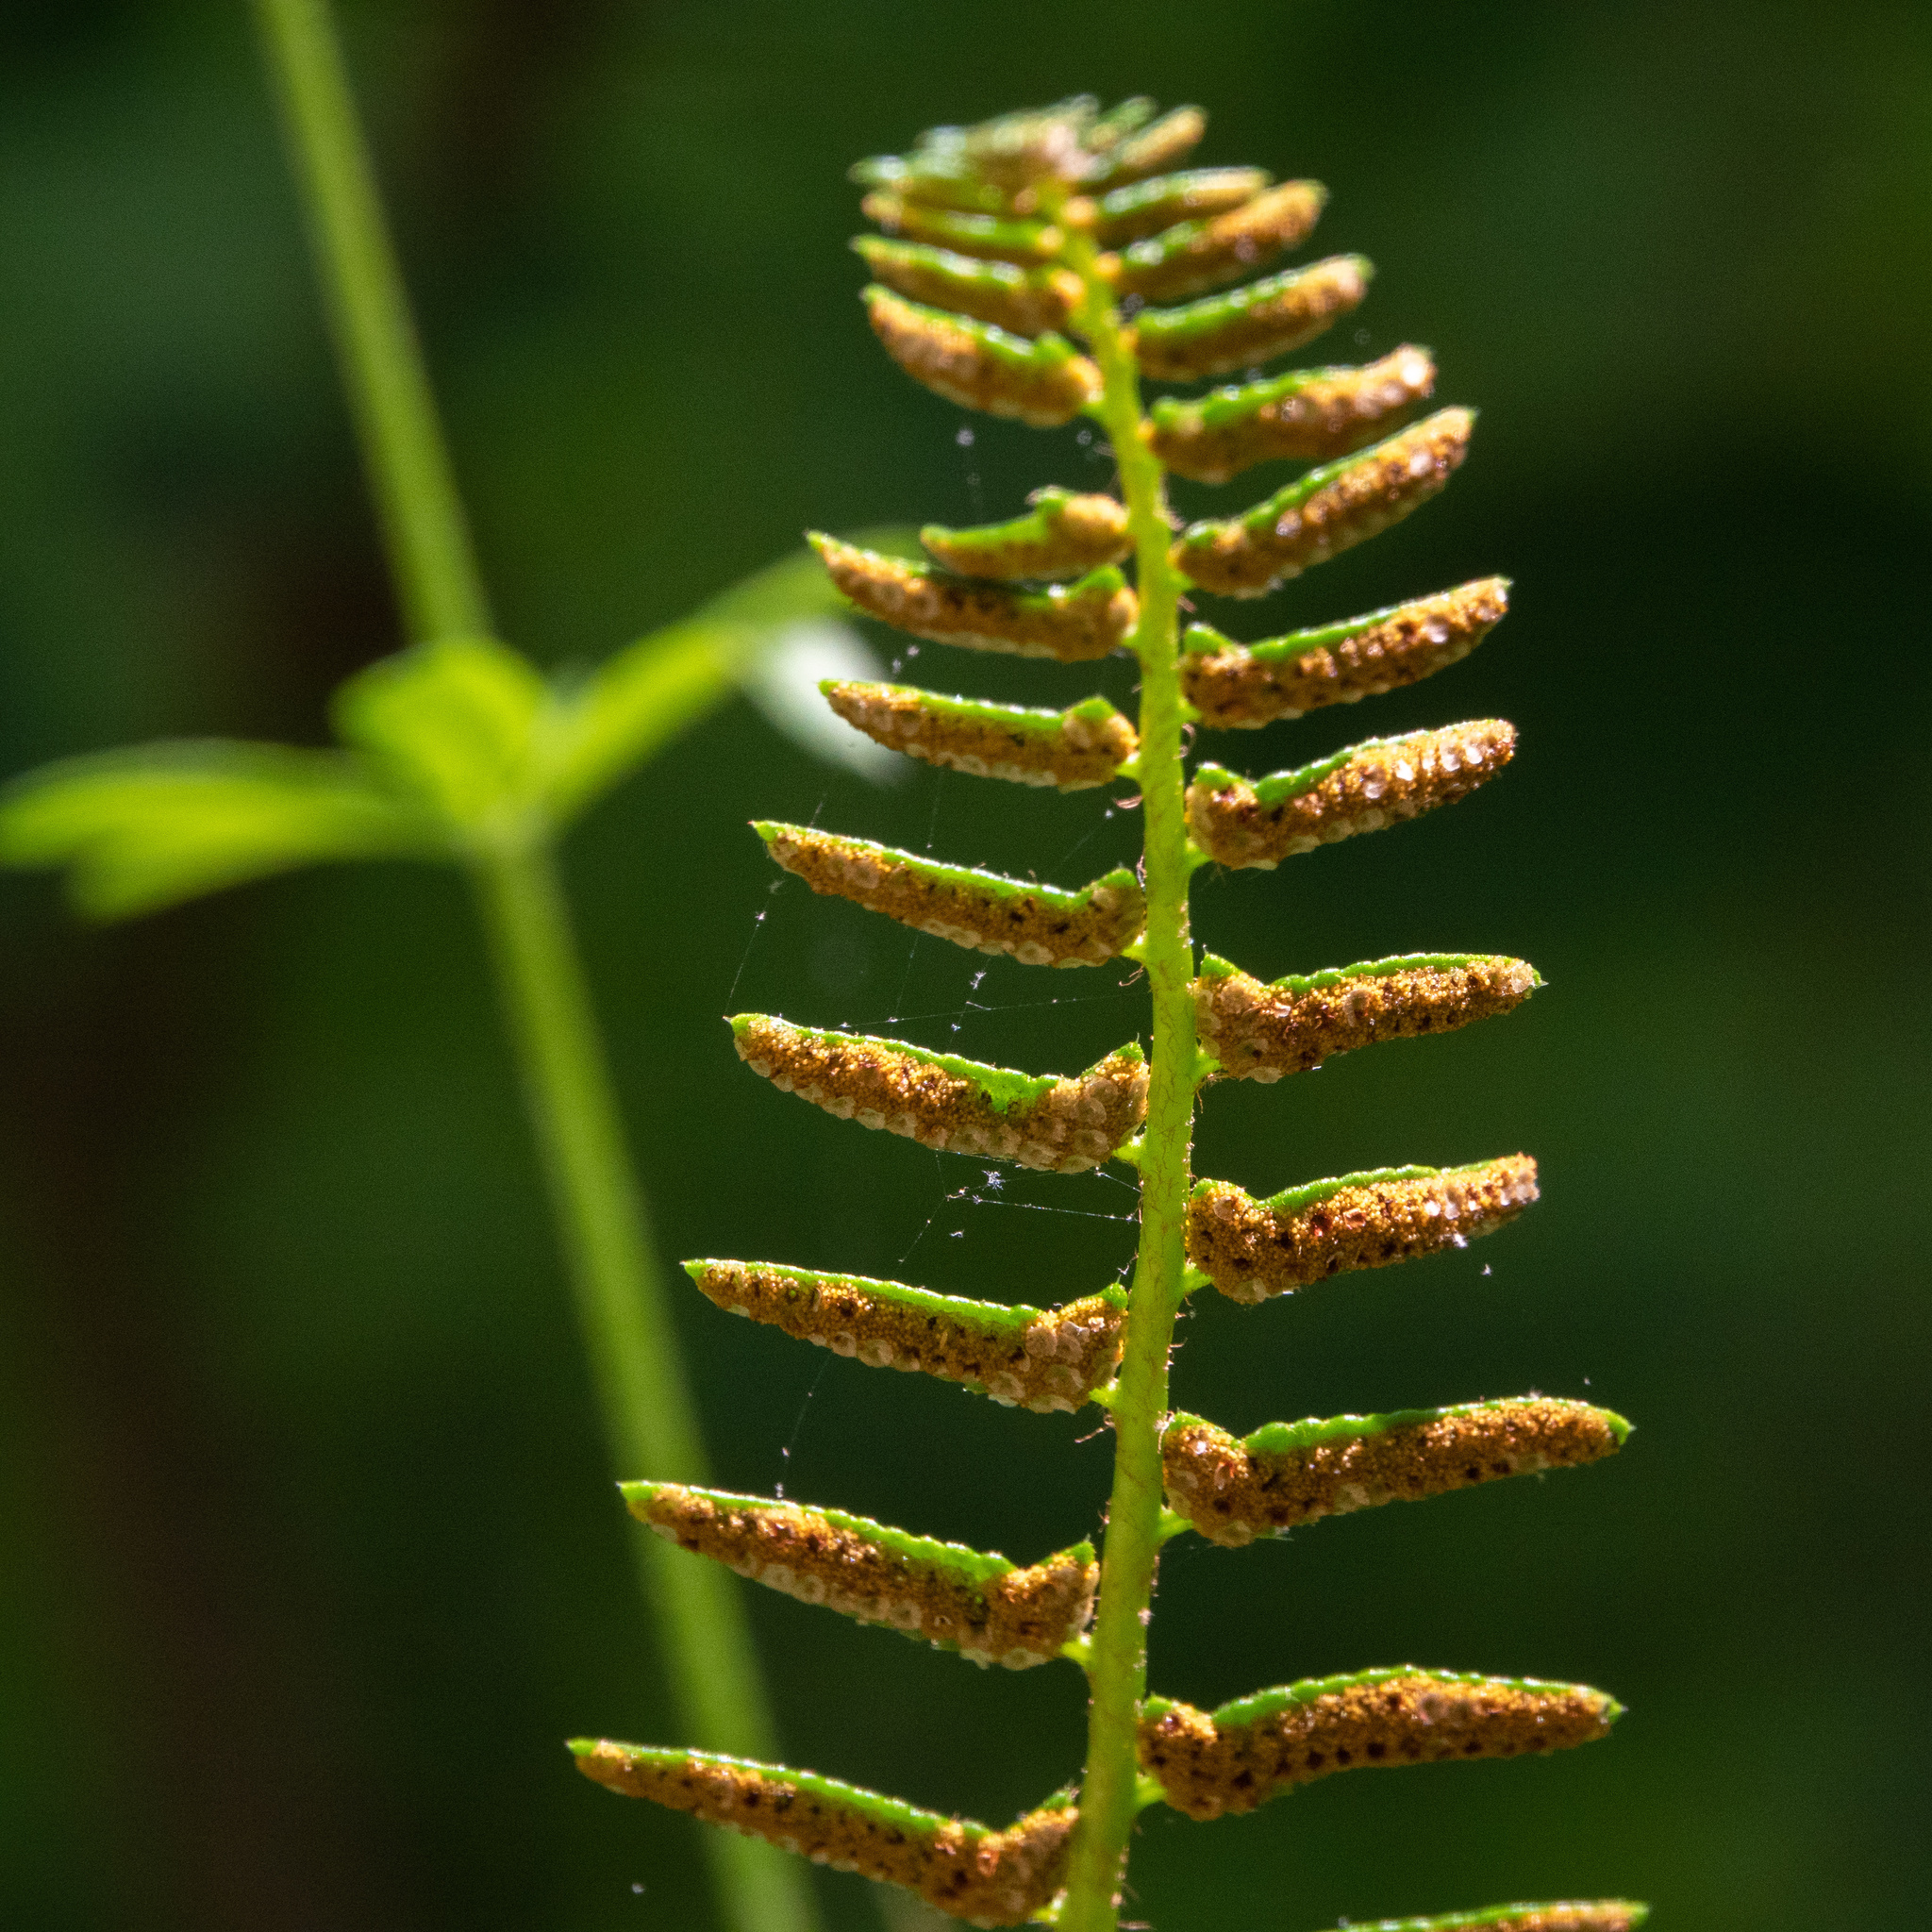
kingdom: Plantae
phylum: Tracheophyta
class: Polypodiopsida
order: Polypodiales
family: Dryopteridaceae
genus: Polystichum
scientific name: Polystichum acrostichoides
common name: Christmas fern
